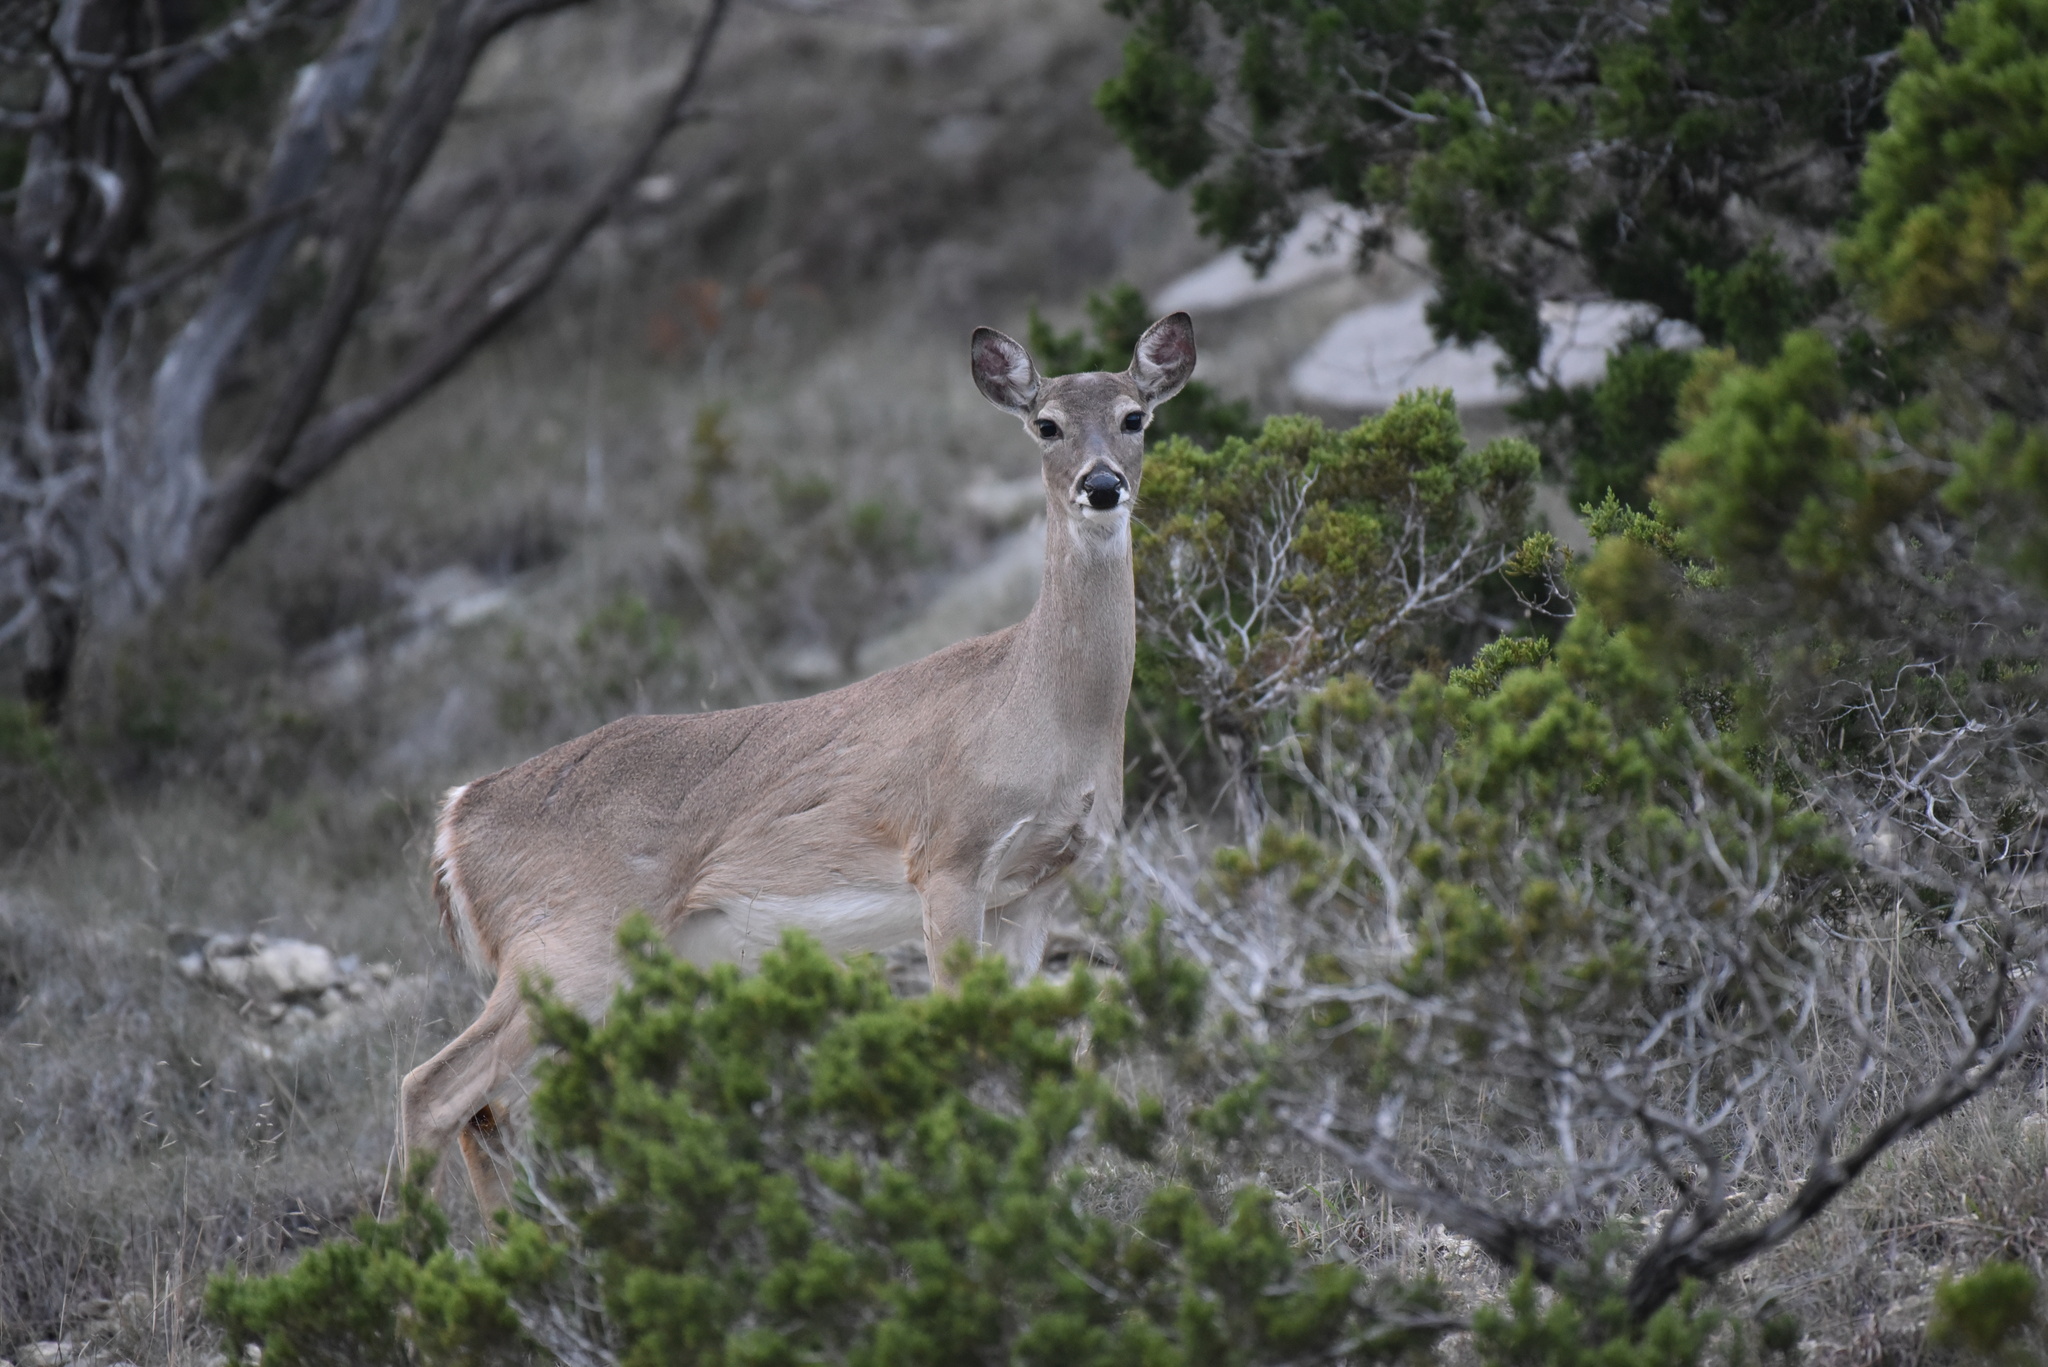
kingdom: Animalia
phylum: Chordata
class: Mammalia
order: Artiodactyla
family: Cervidae
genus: Odocoileus
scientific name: Odocoileus virginianus
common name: White-tailed deer
